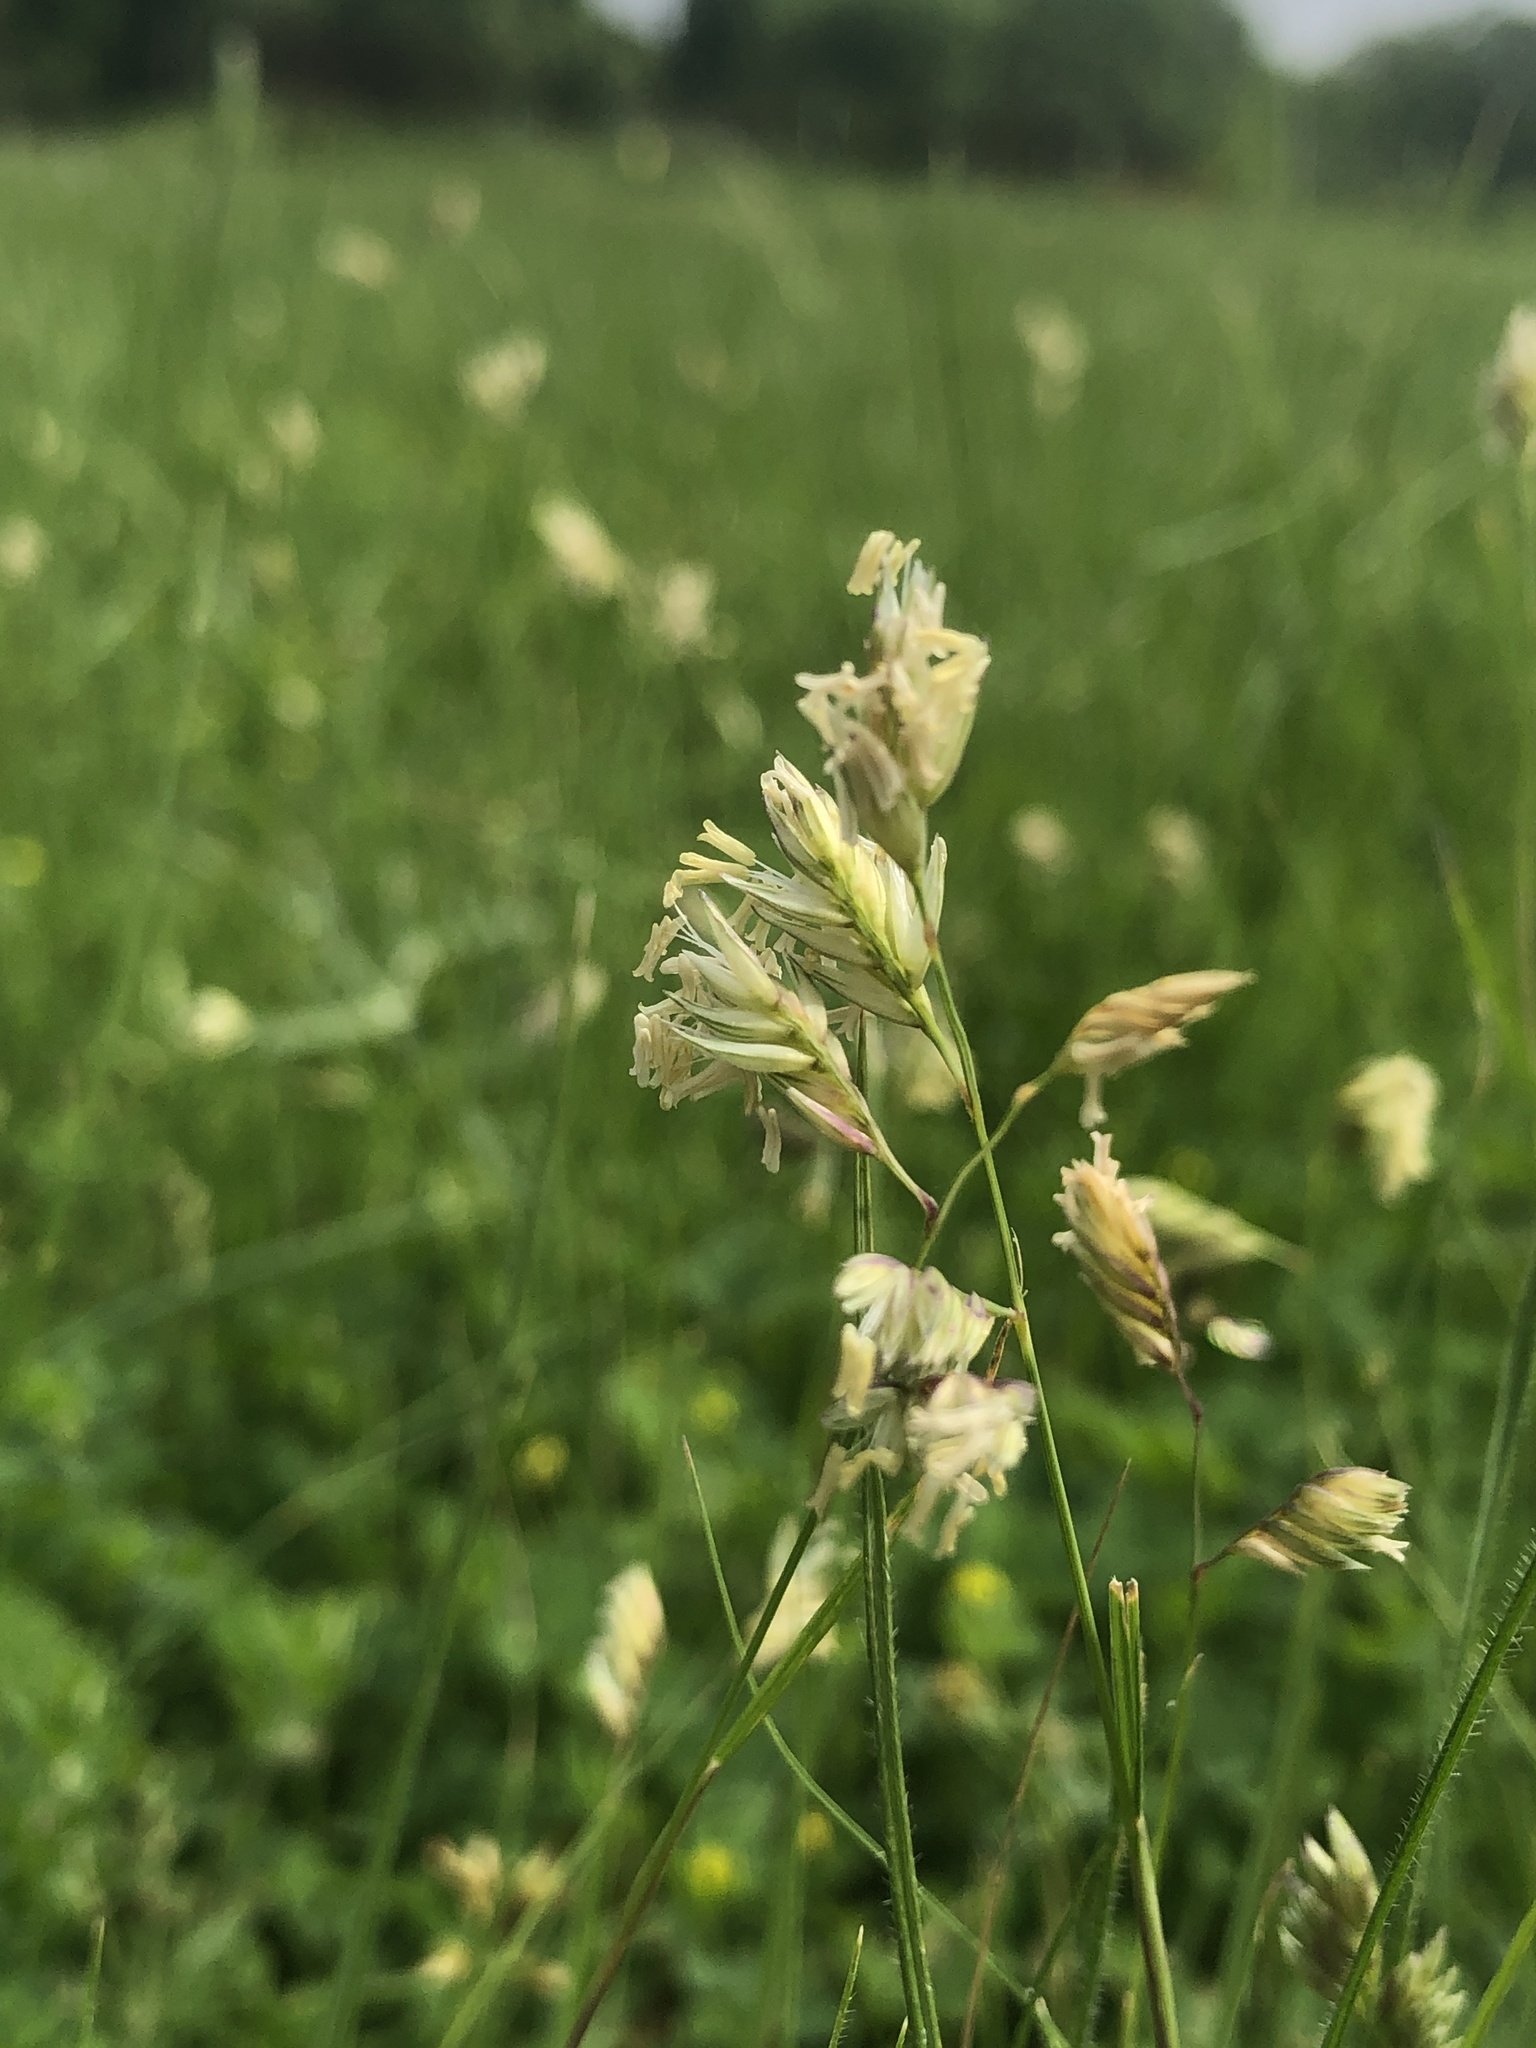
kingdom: Plantae
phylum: Tracheophyta
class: Liliopsida
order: Poales
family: Poaceae
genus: Bouteloua
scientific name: Bouteloua dactyloides
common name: Buffalo grass
